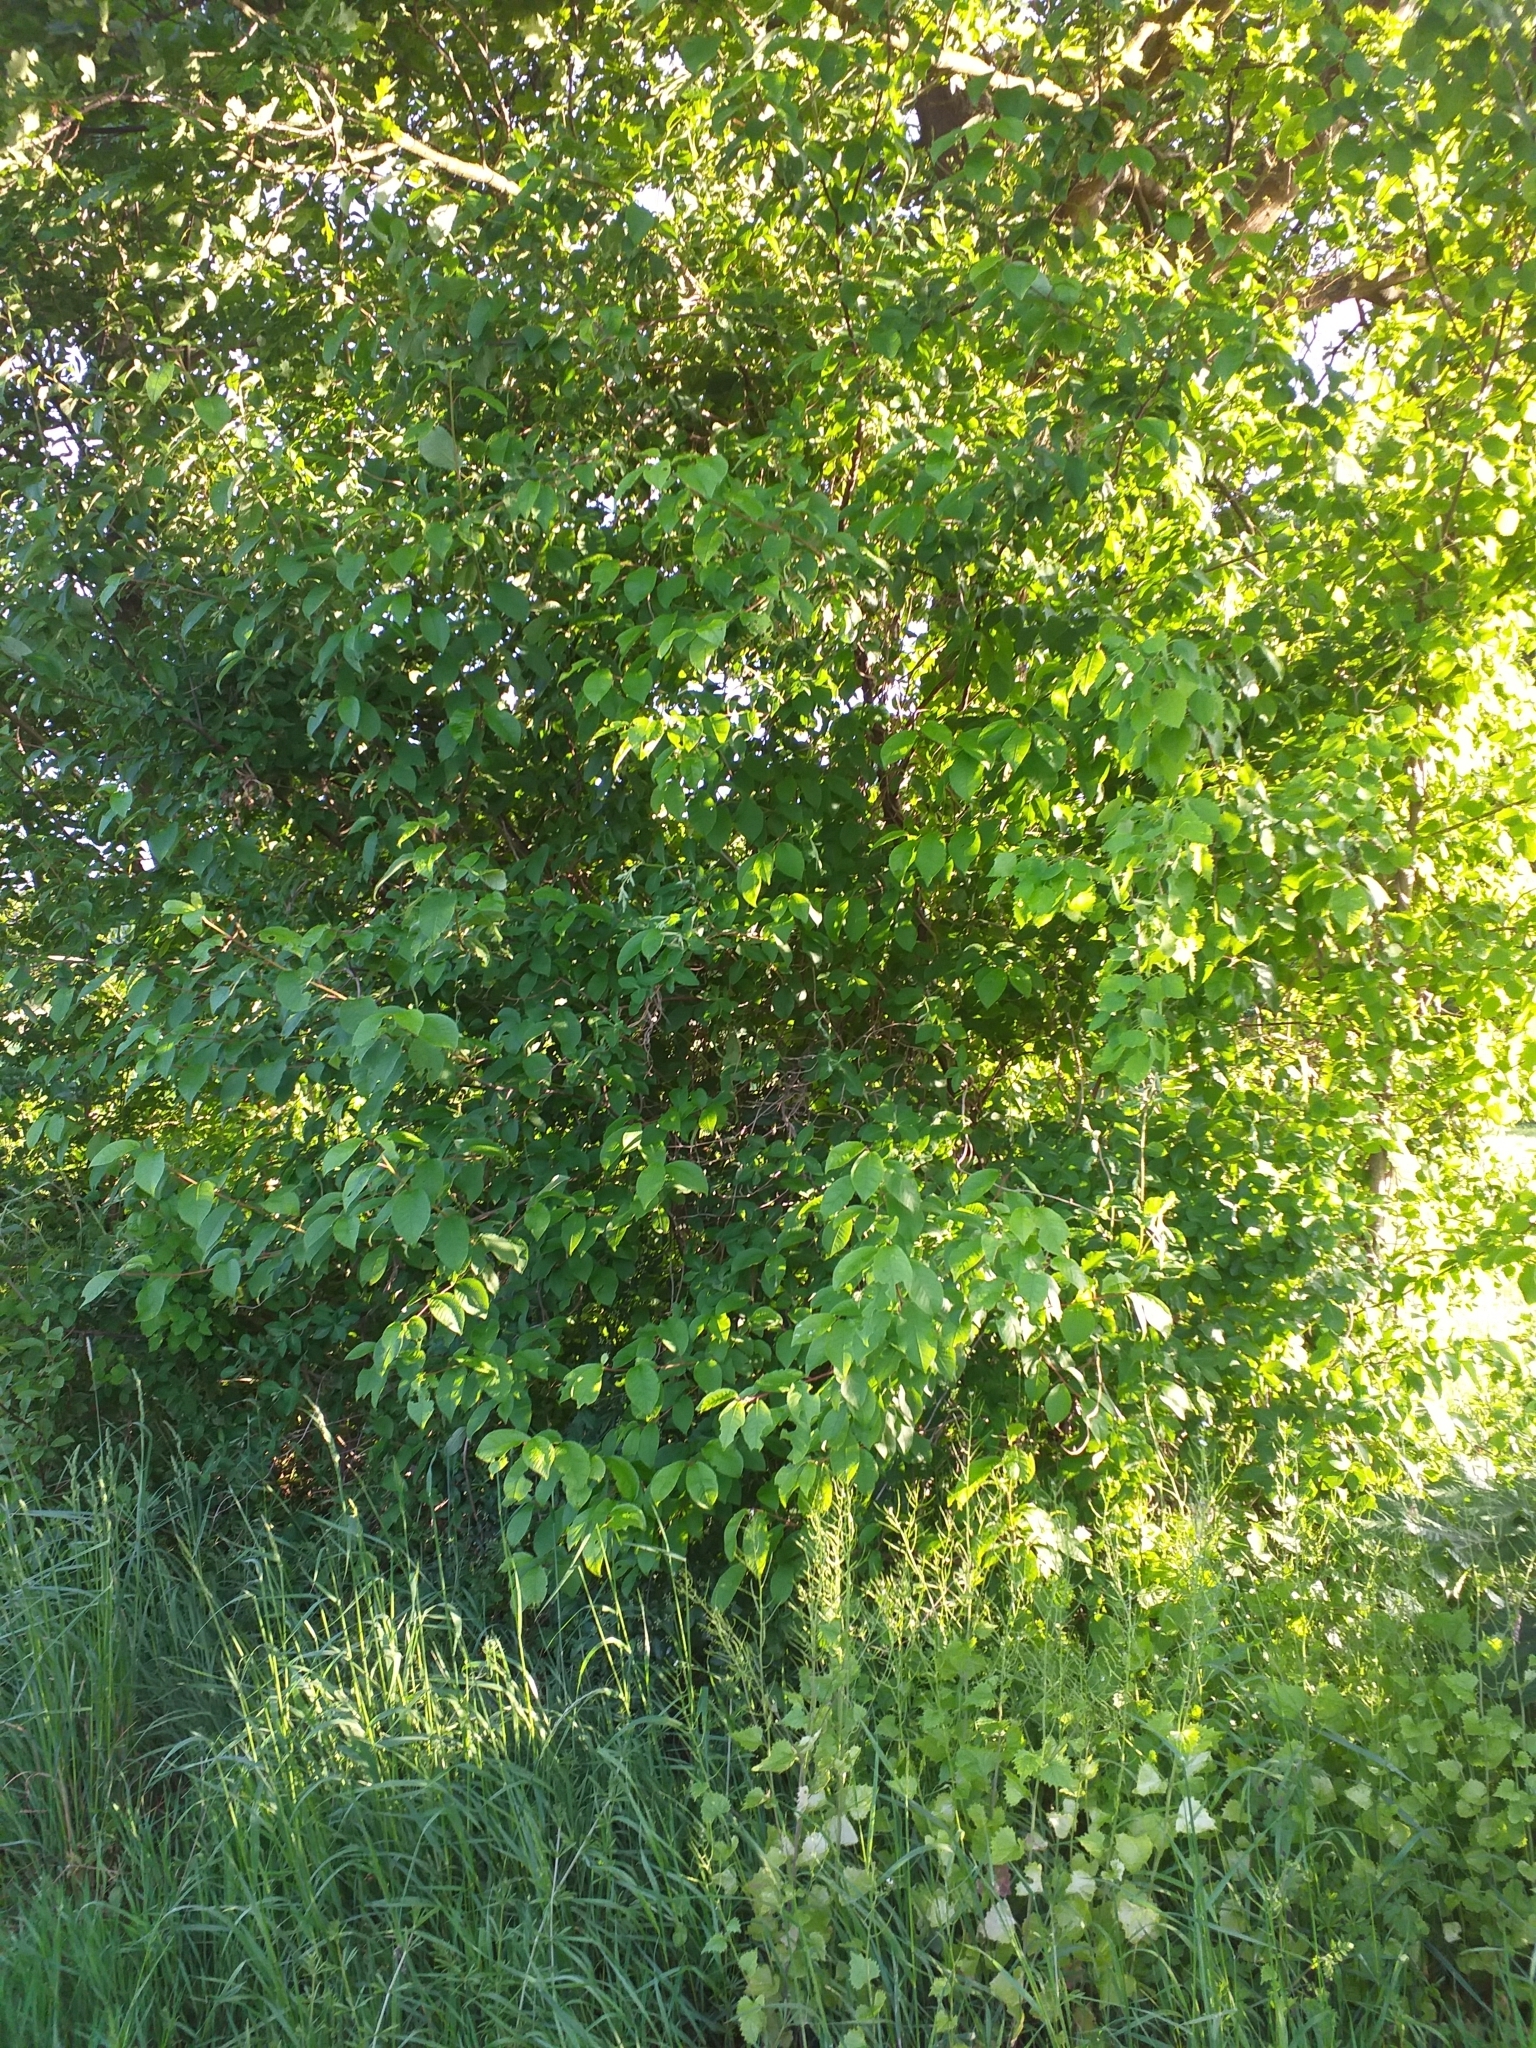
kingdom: Plantae
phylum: Tracheophyta
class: Magnoliopsida
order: Rosales
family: Rosaceae
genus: Prunus
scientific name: Prunus padus
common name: Bird cherry
